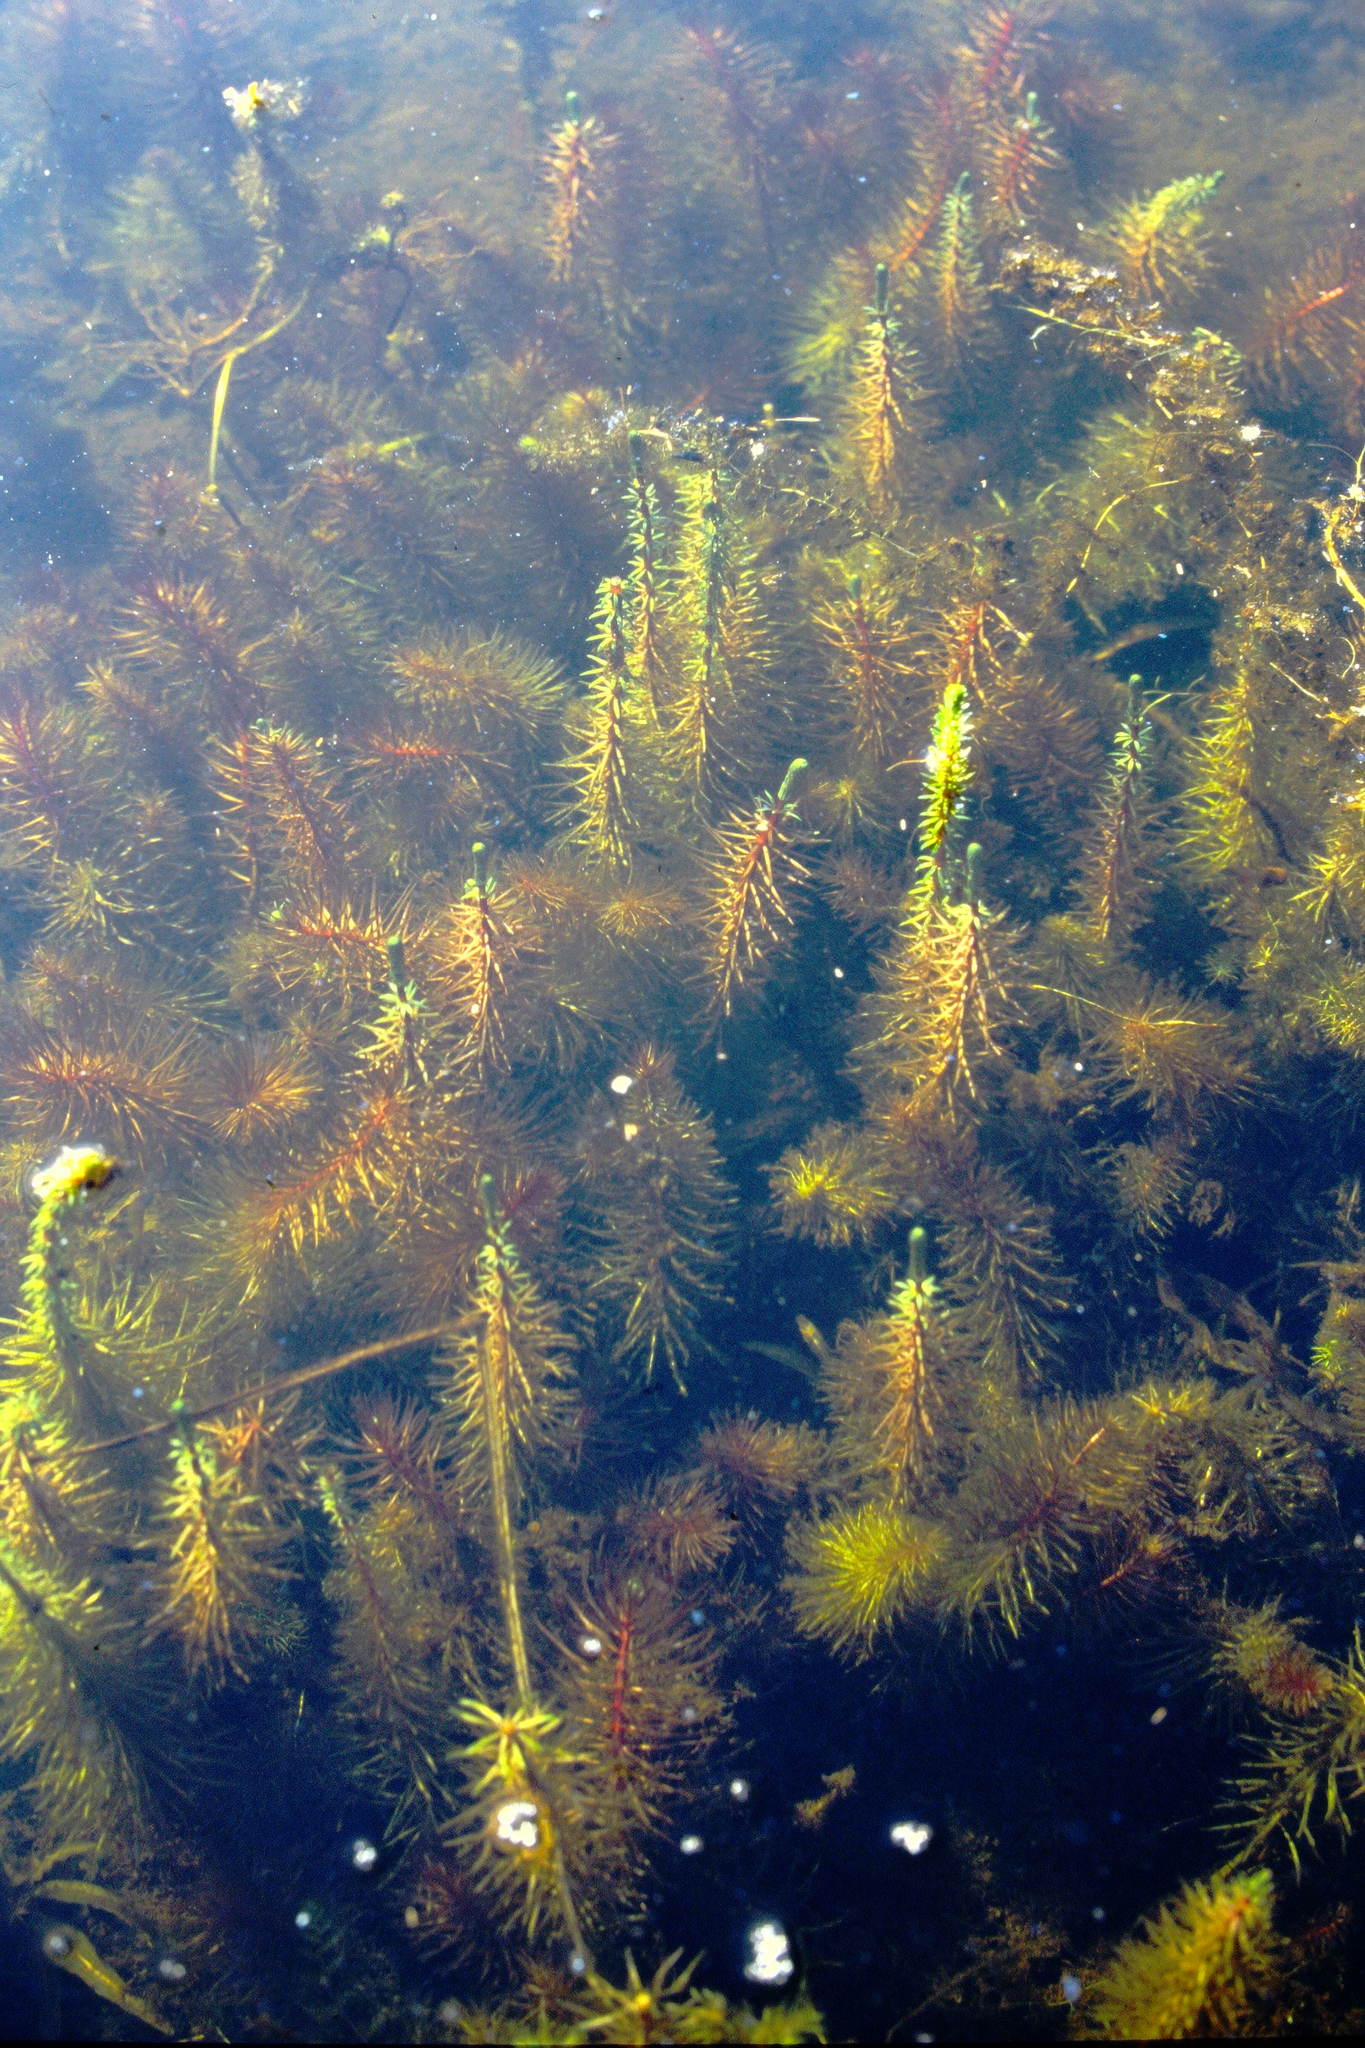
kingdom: Plantae
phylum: Tracheophyta
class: Magnoliopsida
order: Lamiales
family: Plantaginaceae
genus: Hippuris
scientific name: Hippuris vulgaris
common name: Mare's-tail
